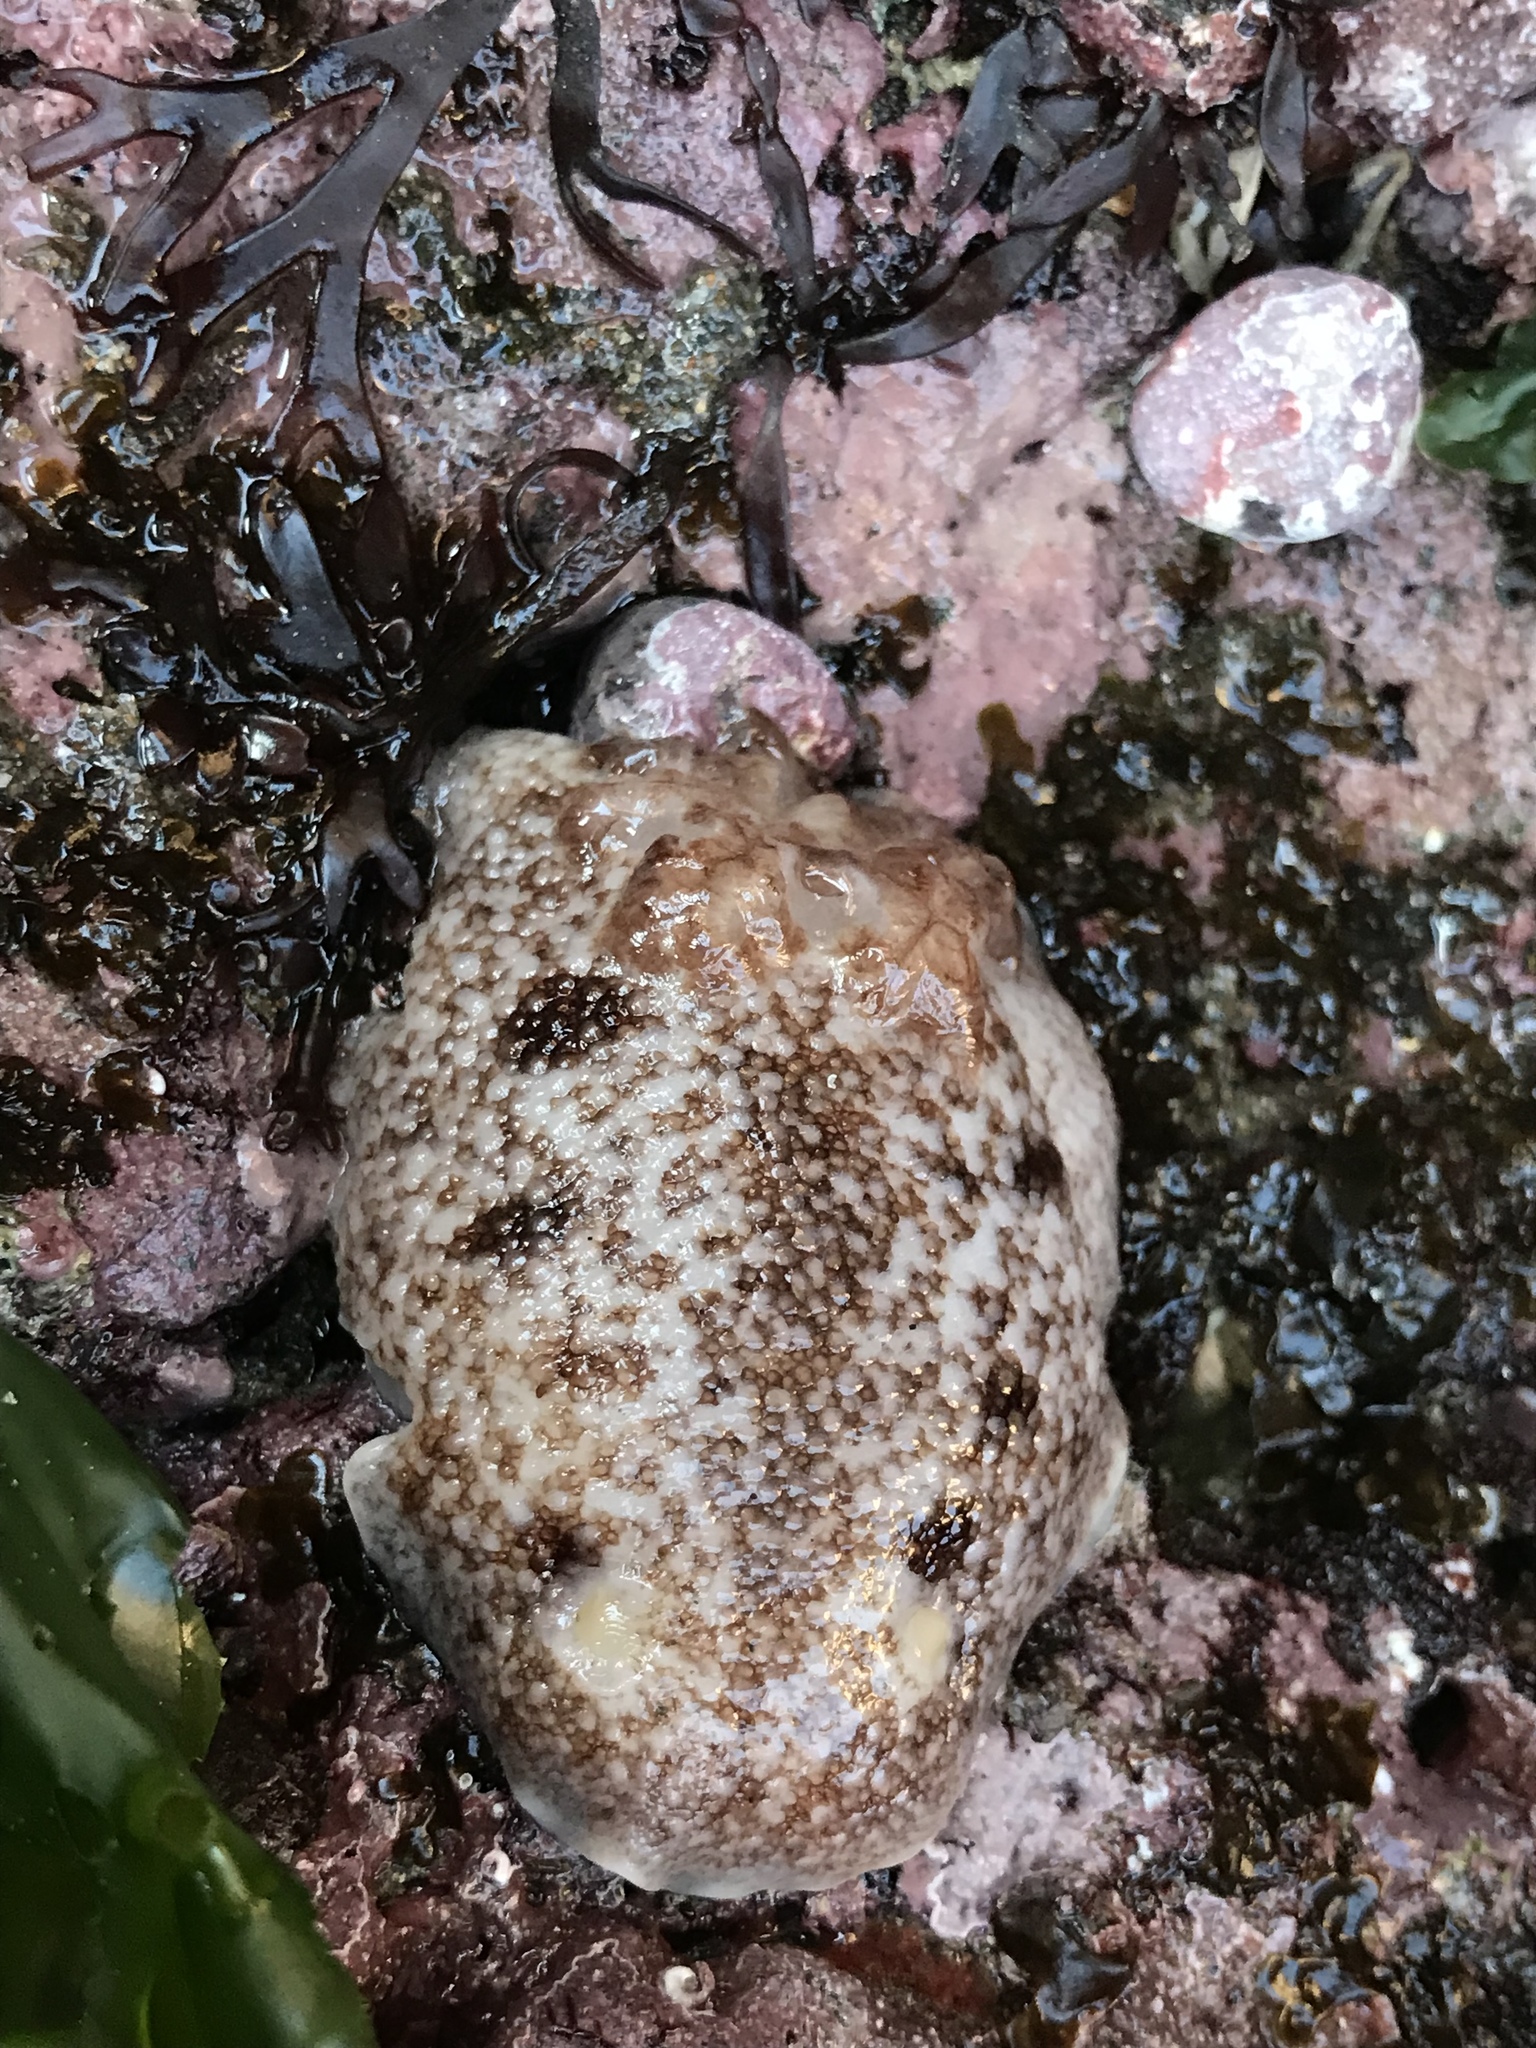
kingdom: Animalia
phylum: Mollusca
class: Gastropoda
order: Nudibranchia
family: Discodorididae
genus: Diaulula
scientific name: Diaulula variolata
